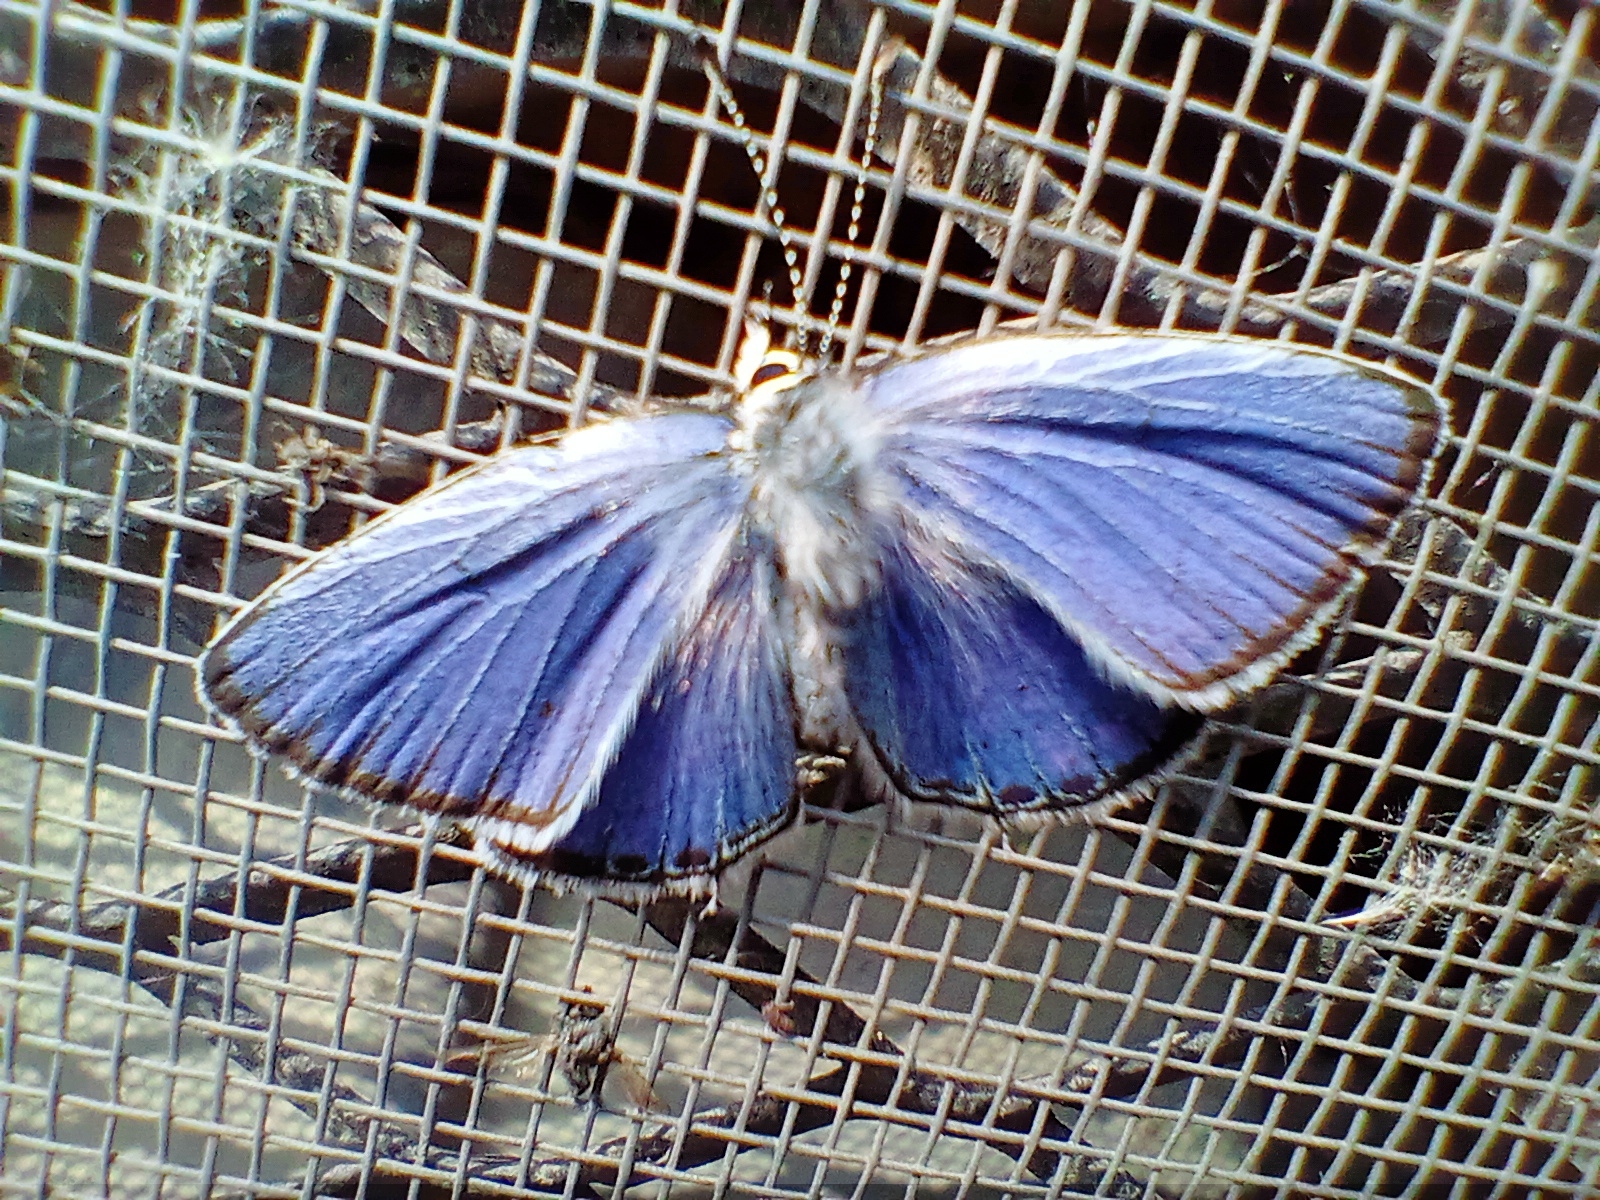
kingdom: Animalia
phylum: Arthropoda
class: Insecta
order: Lepidoptera
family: Lycaenidae
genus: Elkalyce
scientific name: Elkalyce argiades
